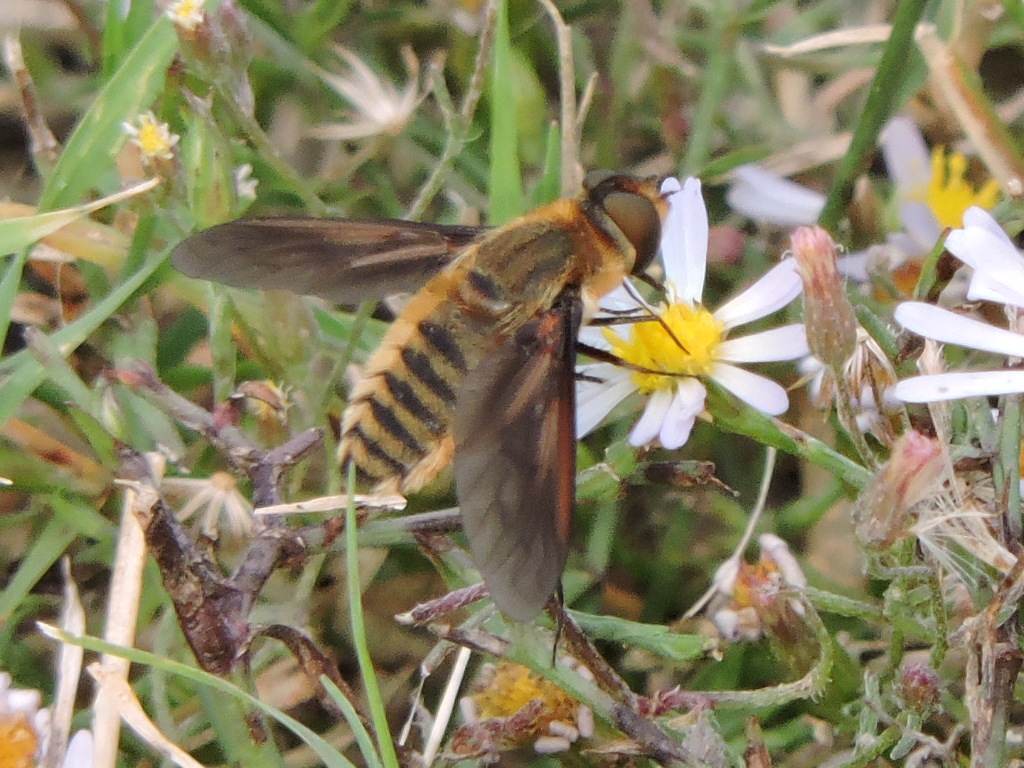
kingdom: Animalia
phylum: Arthropoda
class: Insecta
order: Diptera
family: Bombyliidae
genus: Poecilanthrax
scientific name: Poecilanthrax lucifer
